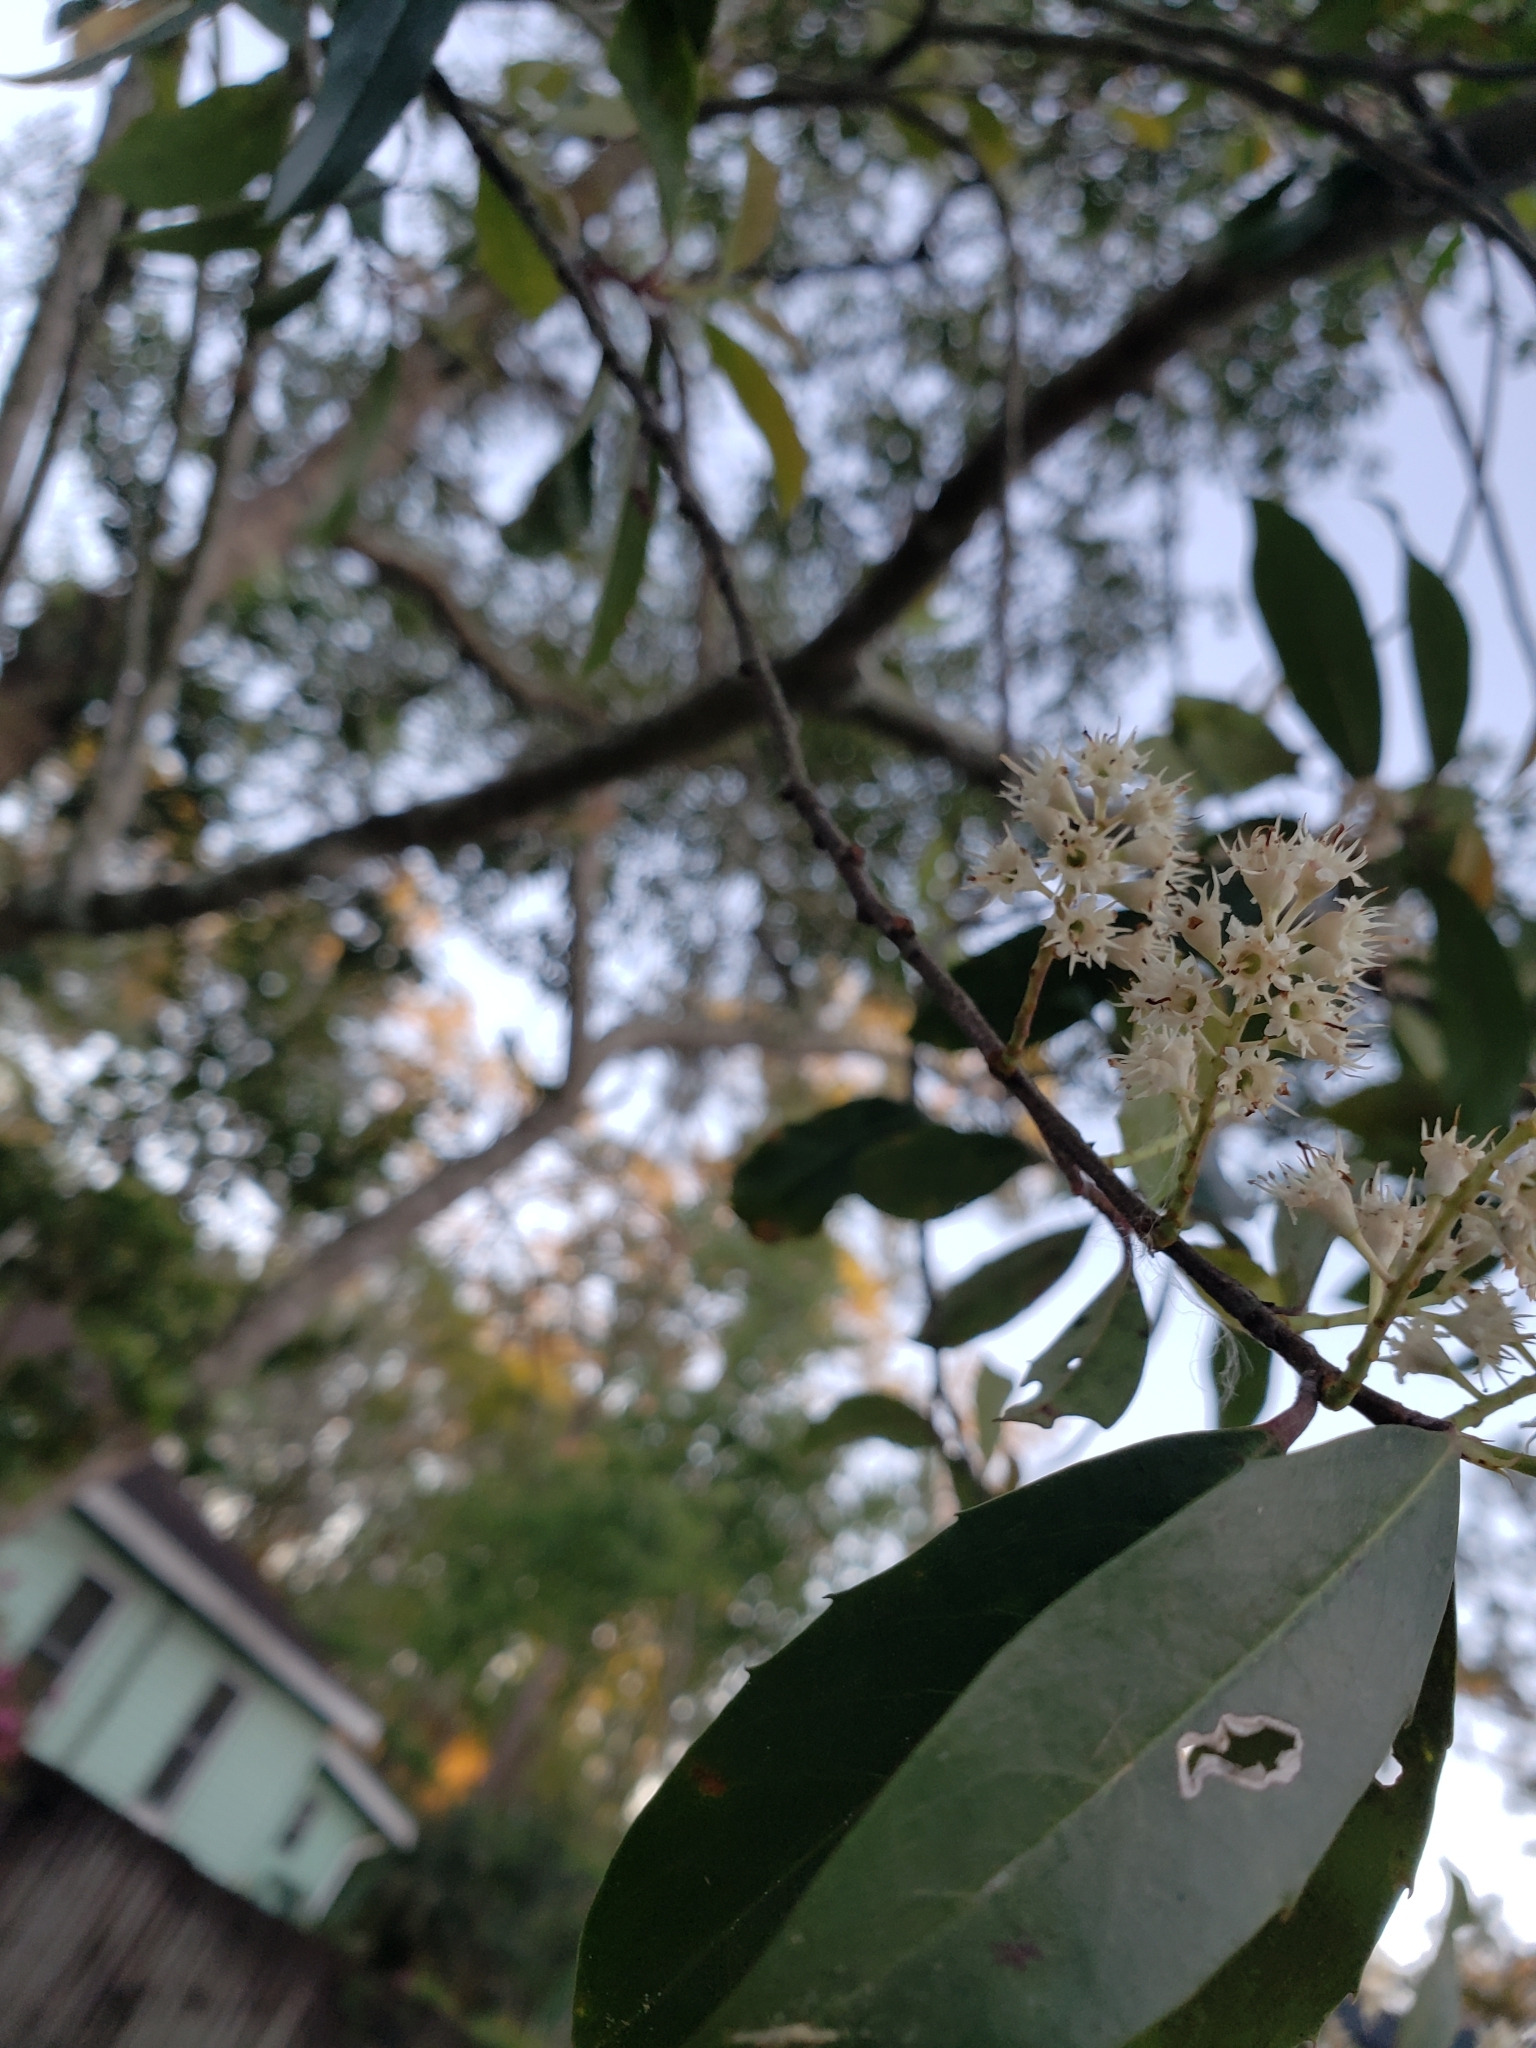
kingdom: Plantae
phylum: Tracheophyta
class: Magnoliopsida
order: Rosales
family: Rosaceae
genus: Prunus
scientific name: Prunus caroliniana
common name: Carolina laurel cherry
